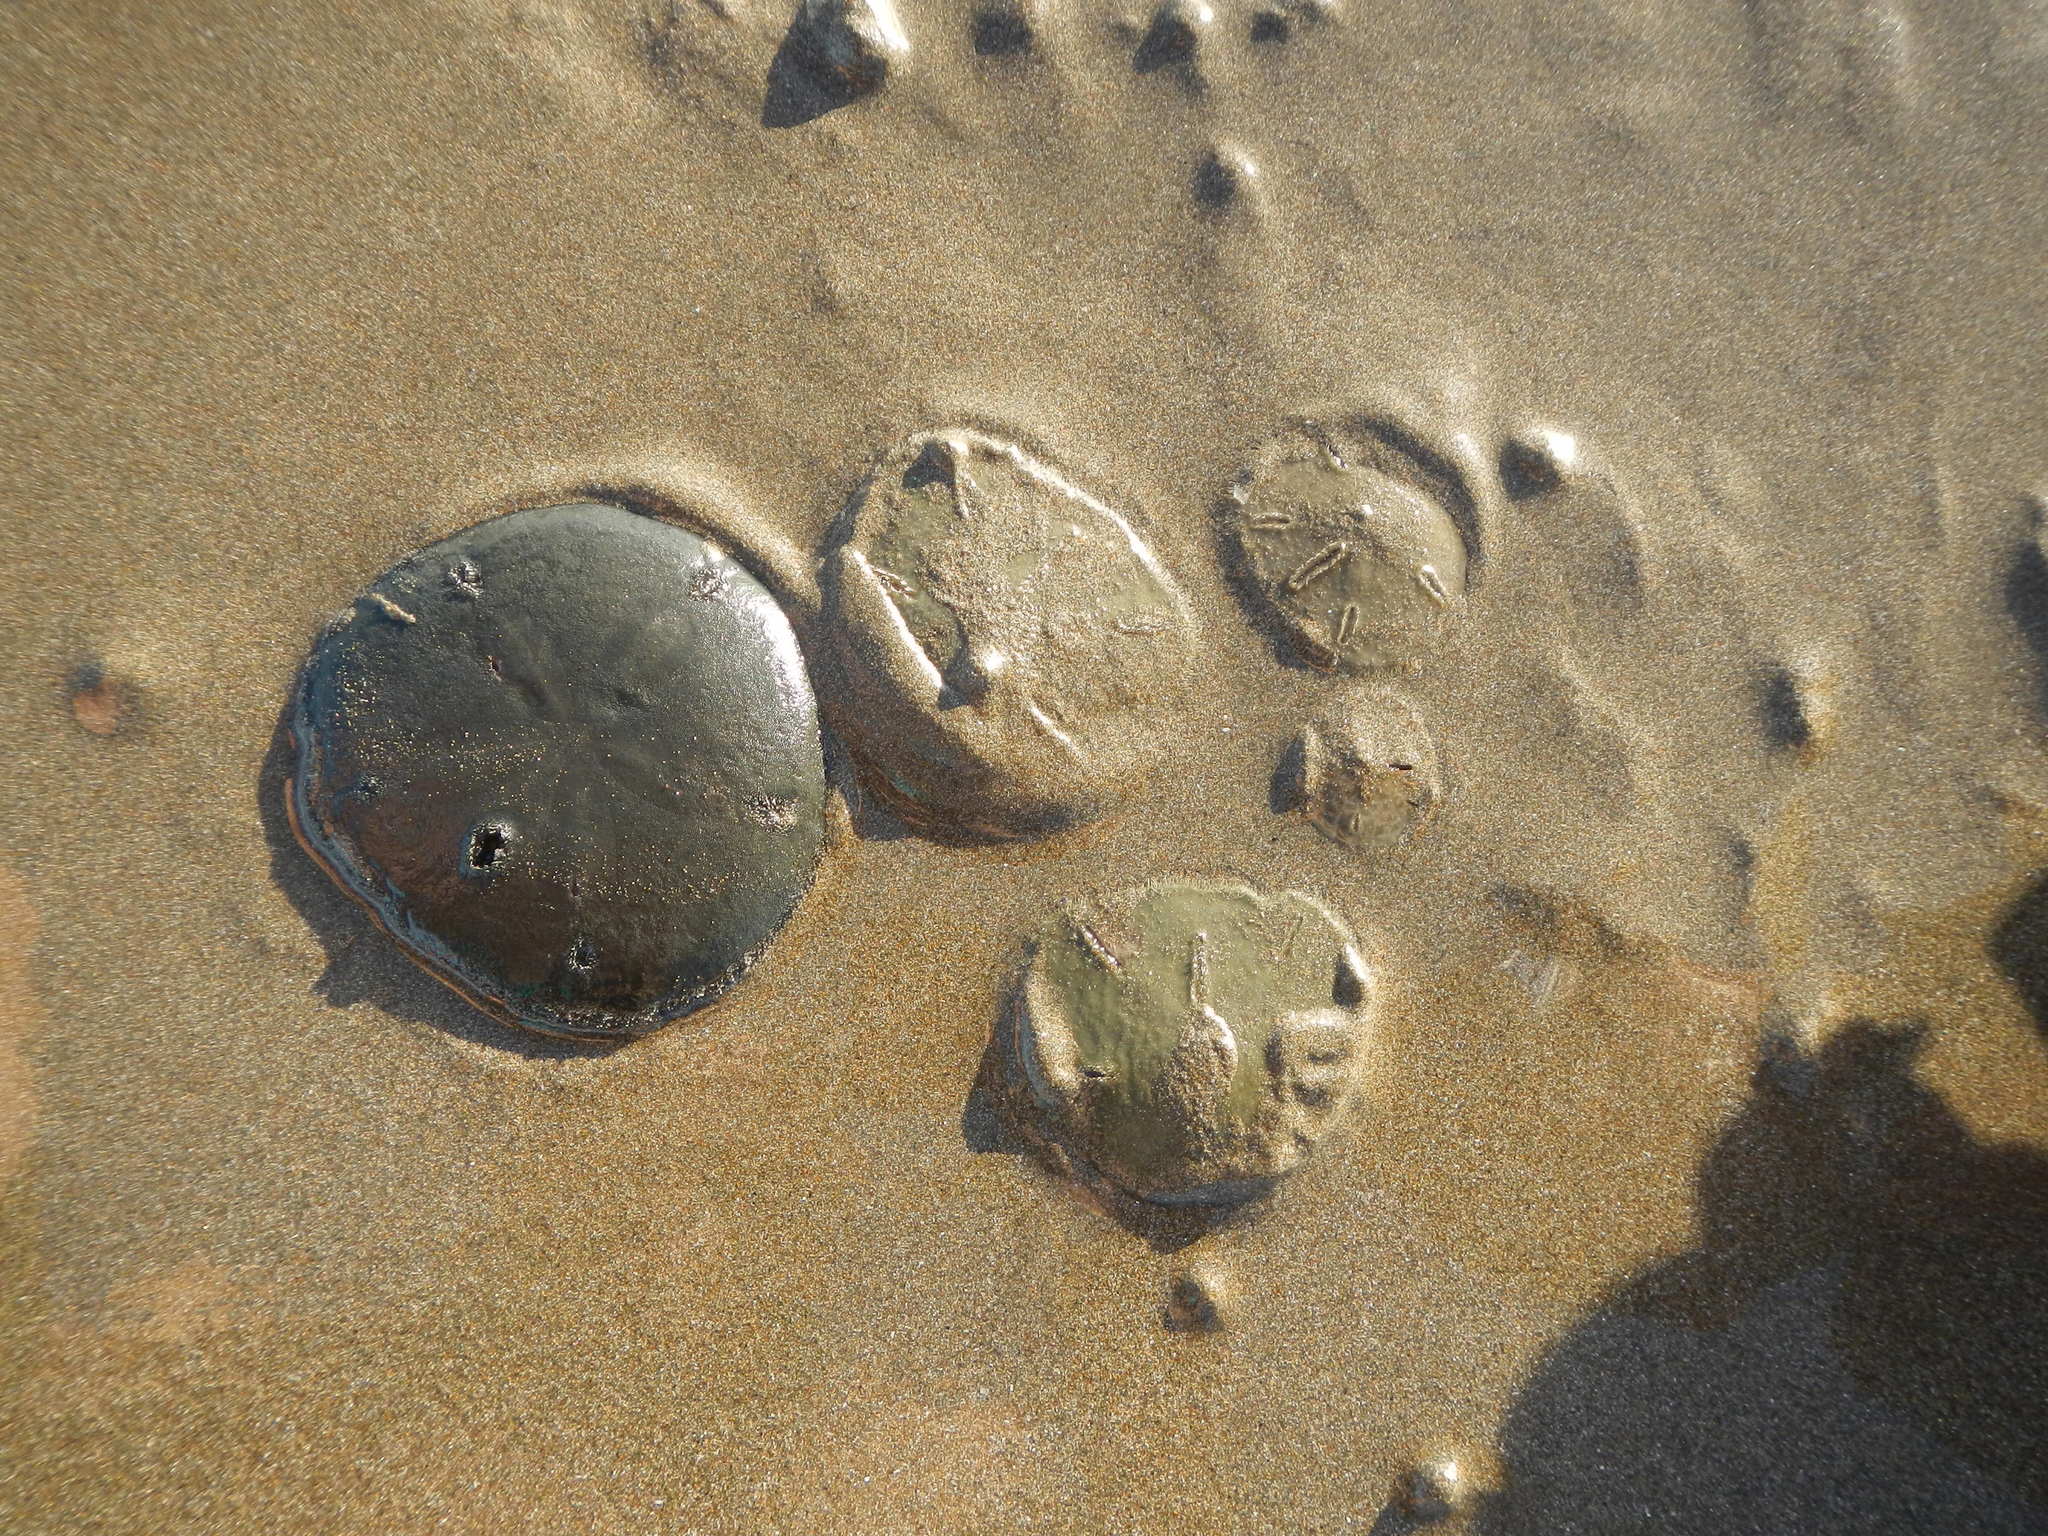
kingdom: Animalia
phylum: Echinodermata
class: Echinoidea
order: Echinolampadacea
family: Mellitidae
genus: Encope
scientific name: Encope micropora
